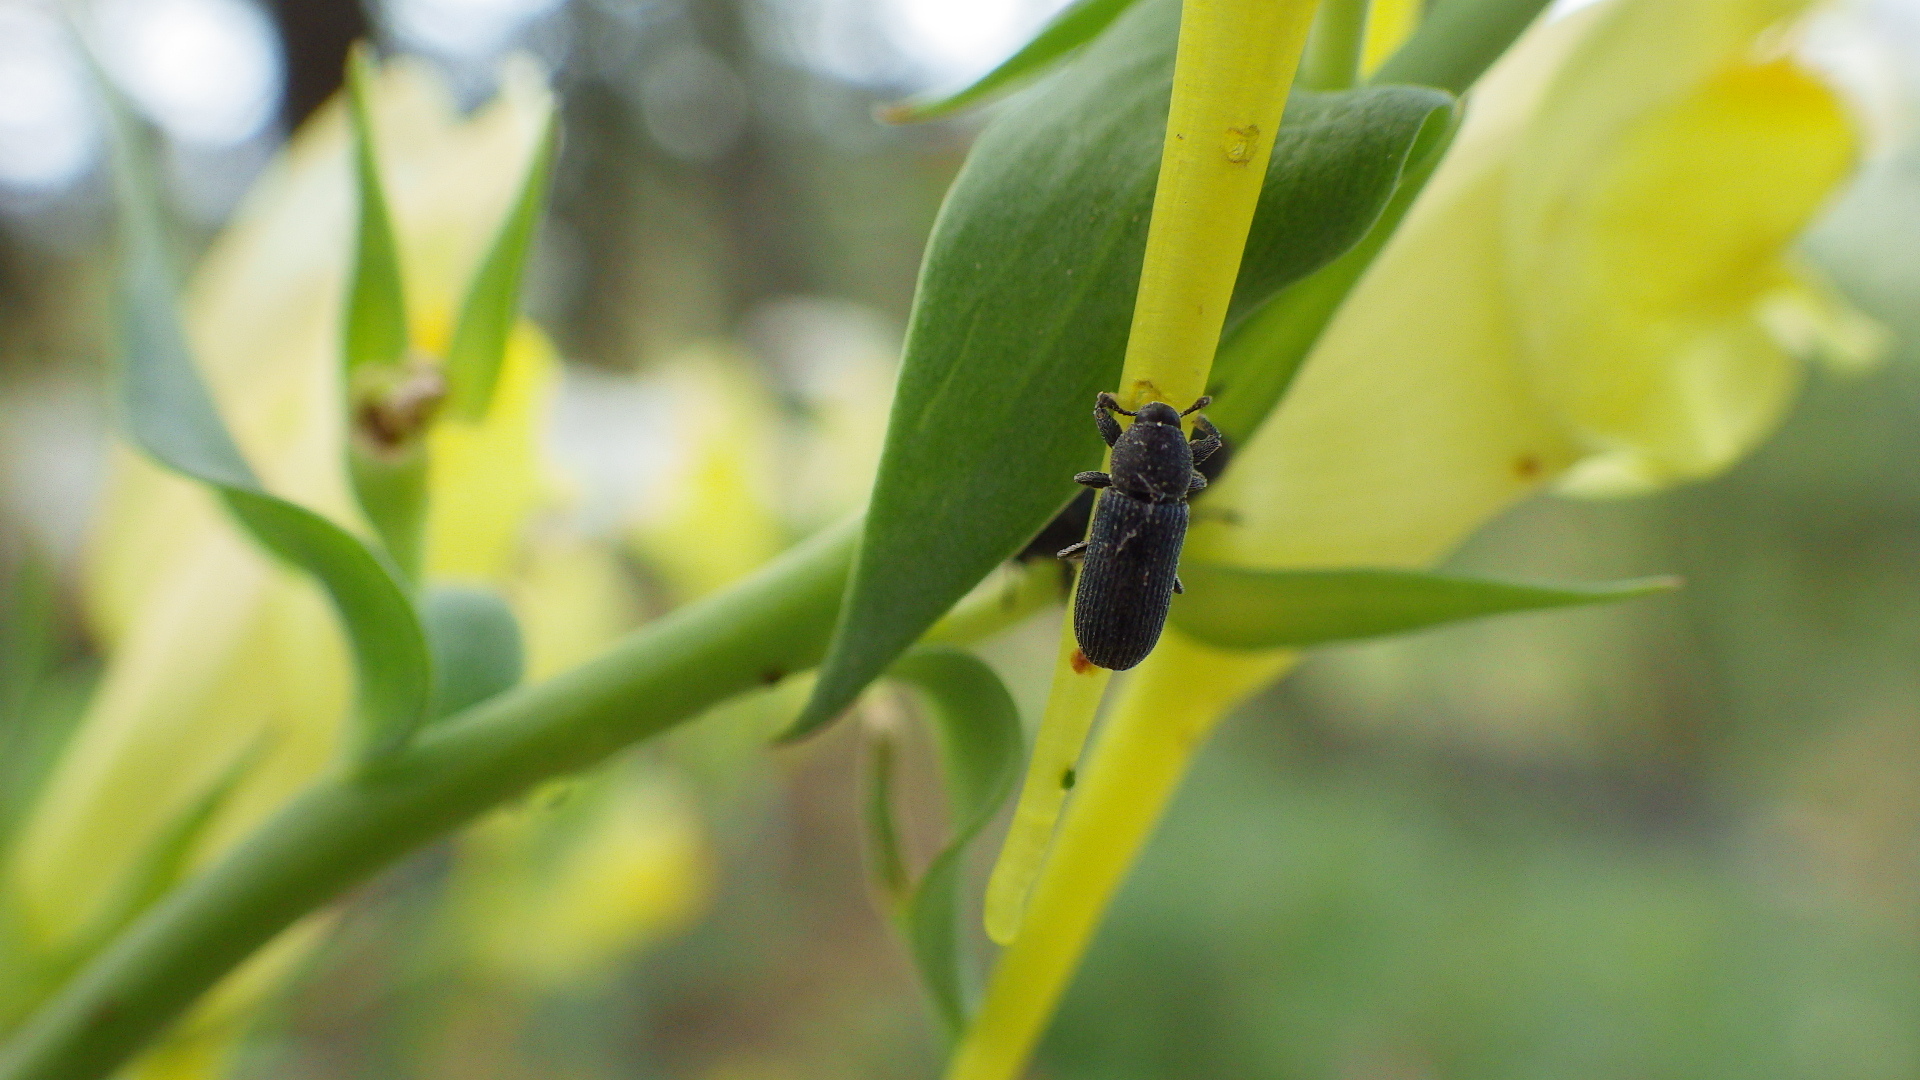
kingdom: Plantae
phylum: Tracheophyta
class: Magnoliopsida
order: Lamiales
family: Plantaginaceae
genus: Linaria
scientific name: Linaria dalmatica
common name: Dalmatian toadflax
